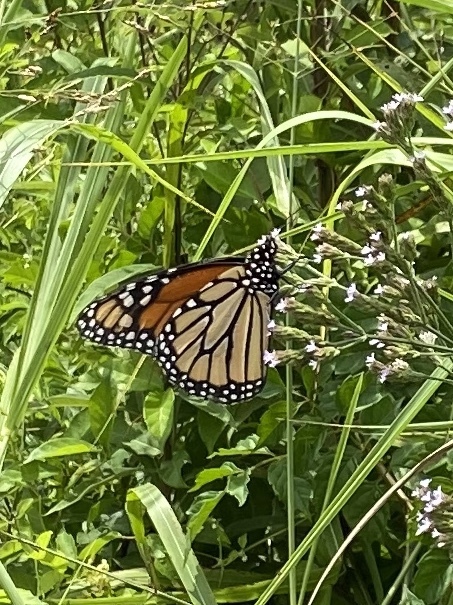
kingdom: Animalia
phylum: Arthropoda
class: Insecta
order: Lepidoptera
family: Nymphalidae
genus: Danaus
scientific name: Danaus plexippus
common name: Monarch
